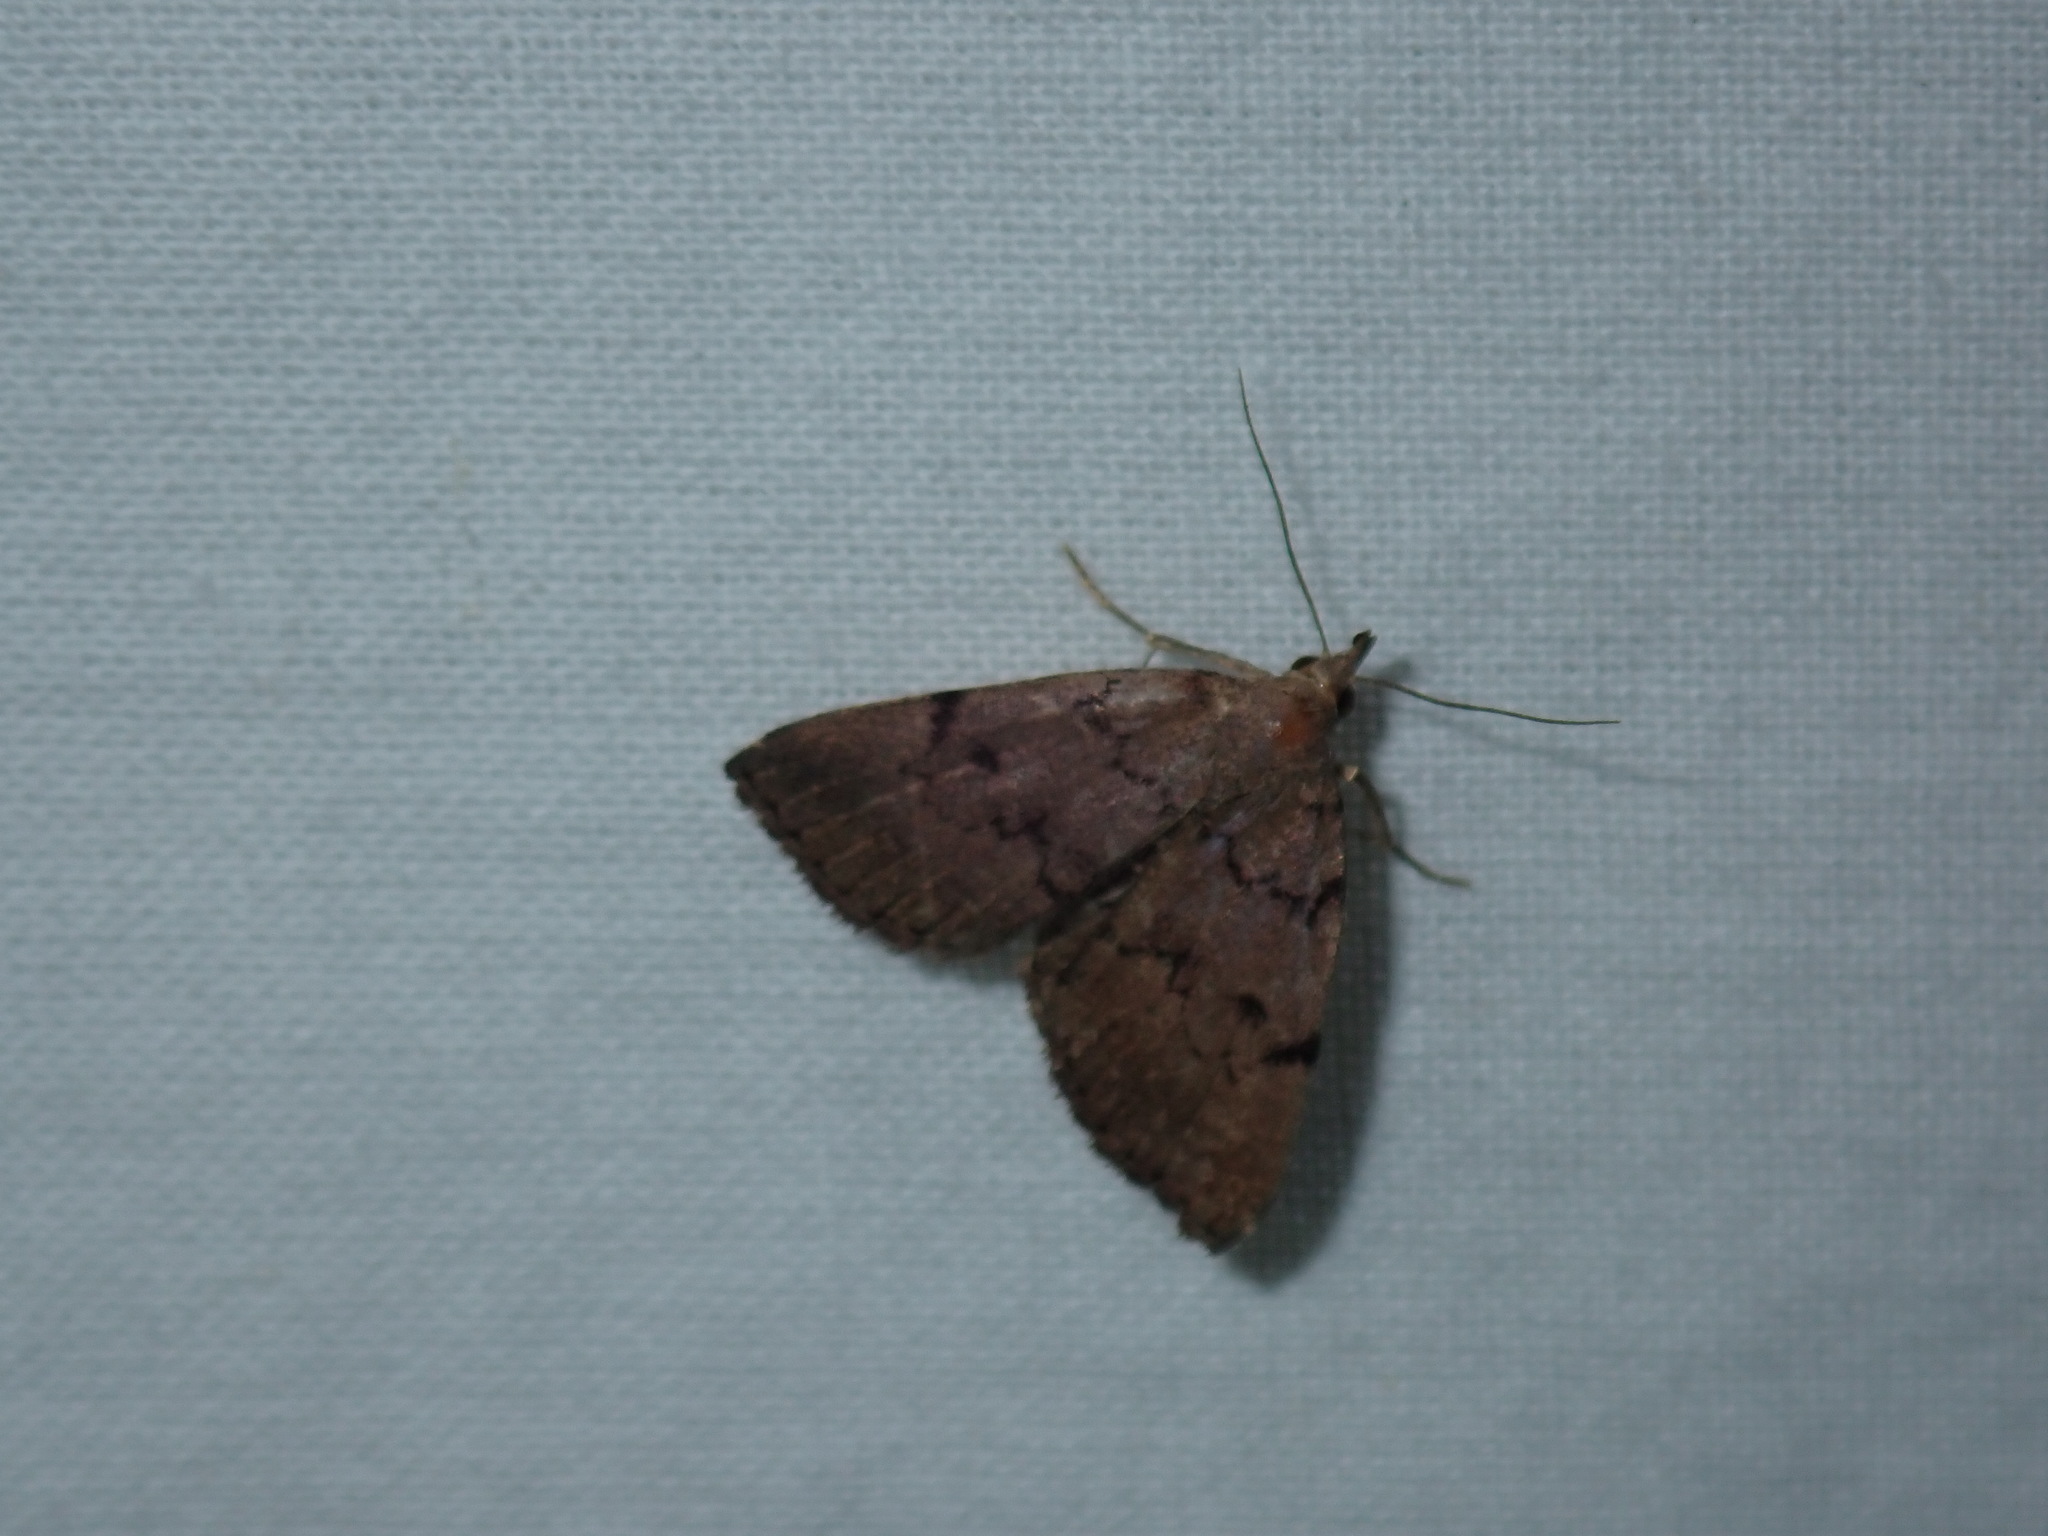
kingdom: Animalia
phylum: Arthropoda
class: Insecta
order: Lepidoptera
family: Erebidae
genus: Zanclognatha
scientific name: Zanclognatha dentata
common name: Toothed fan-foot
